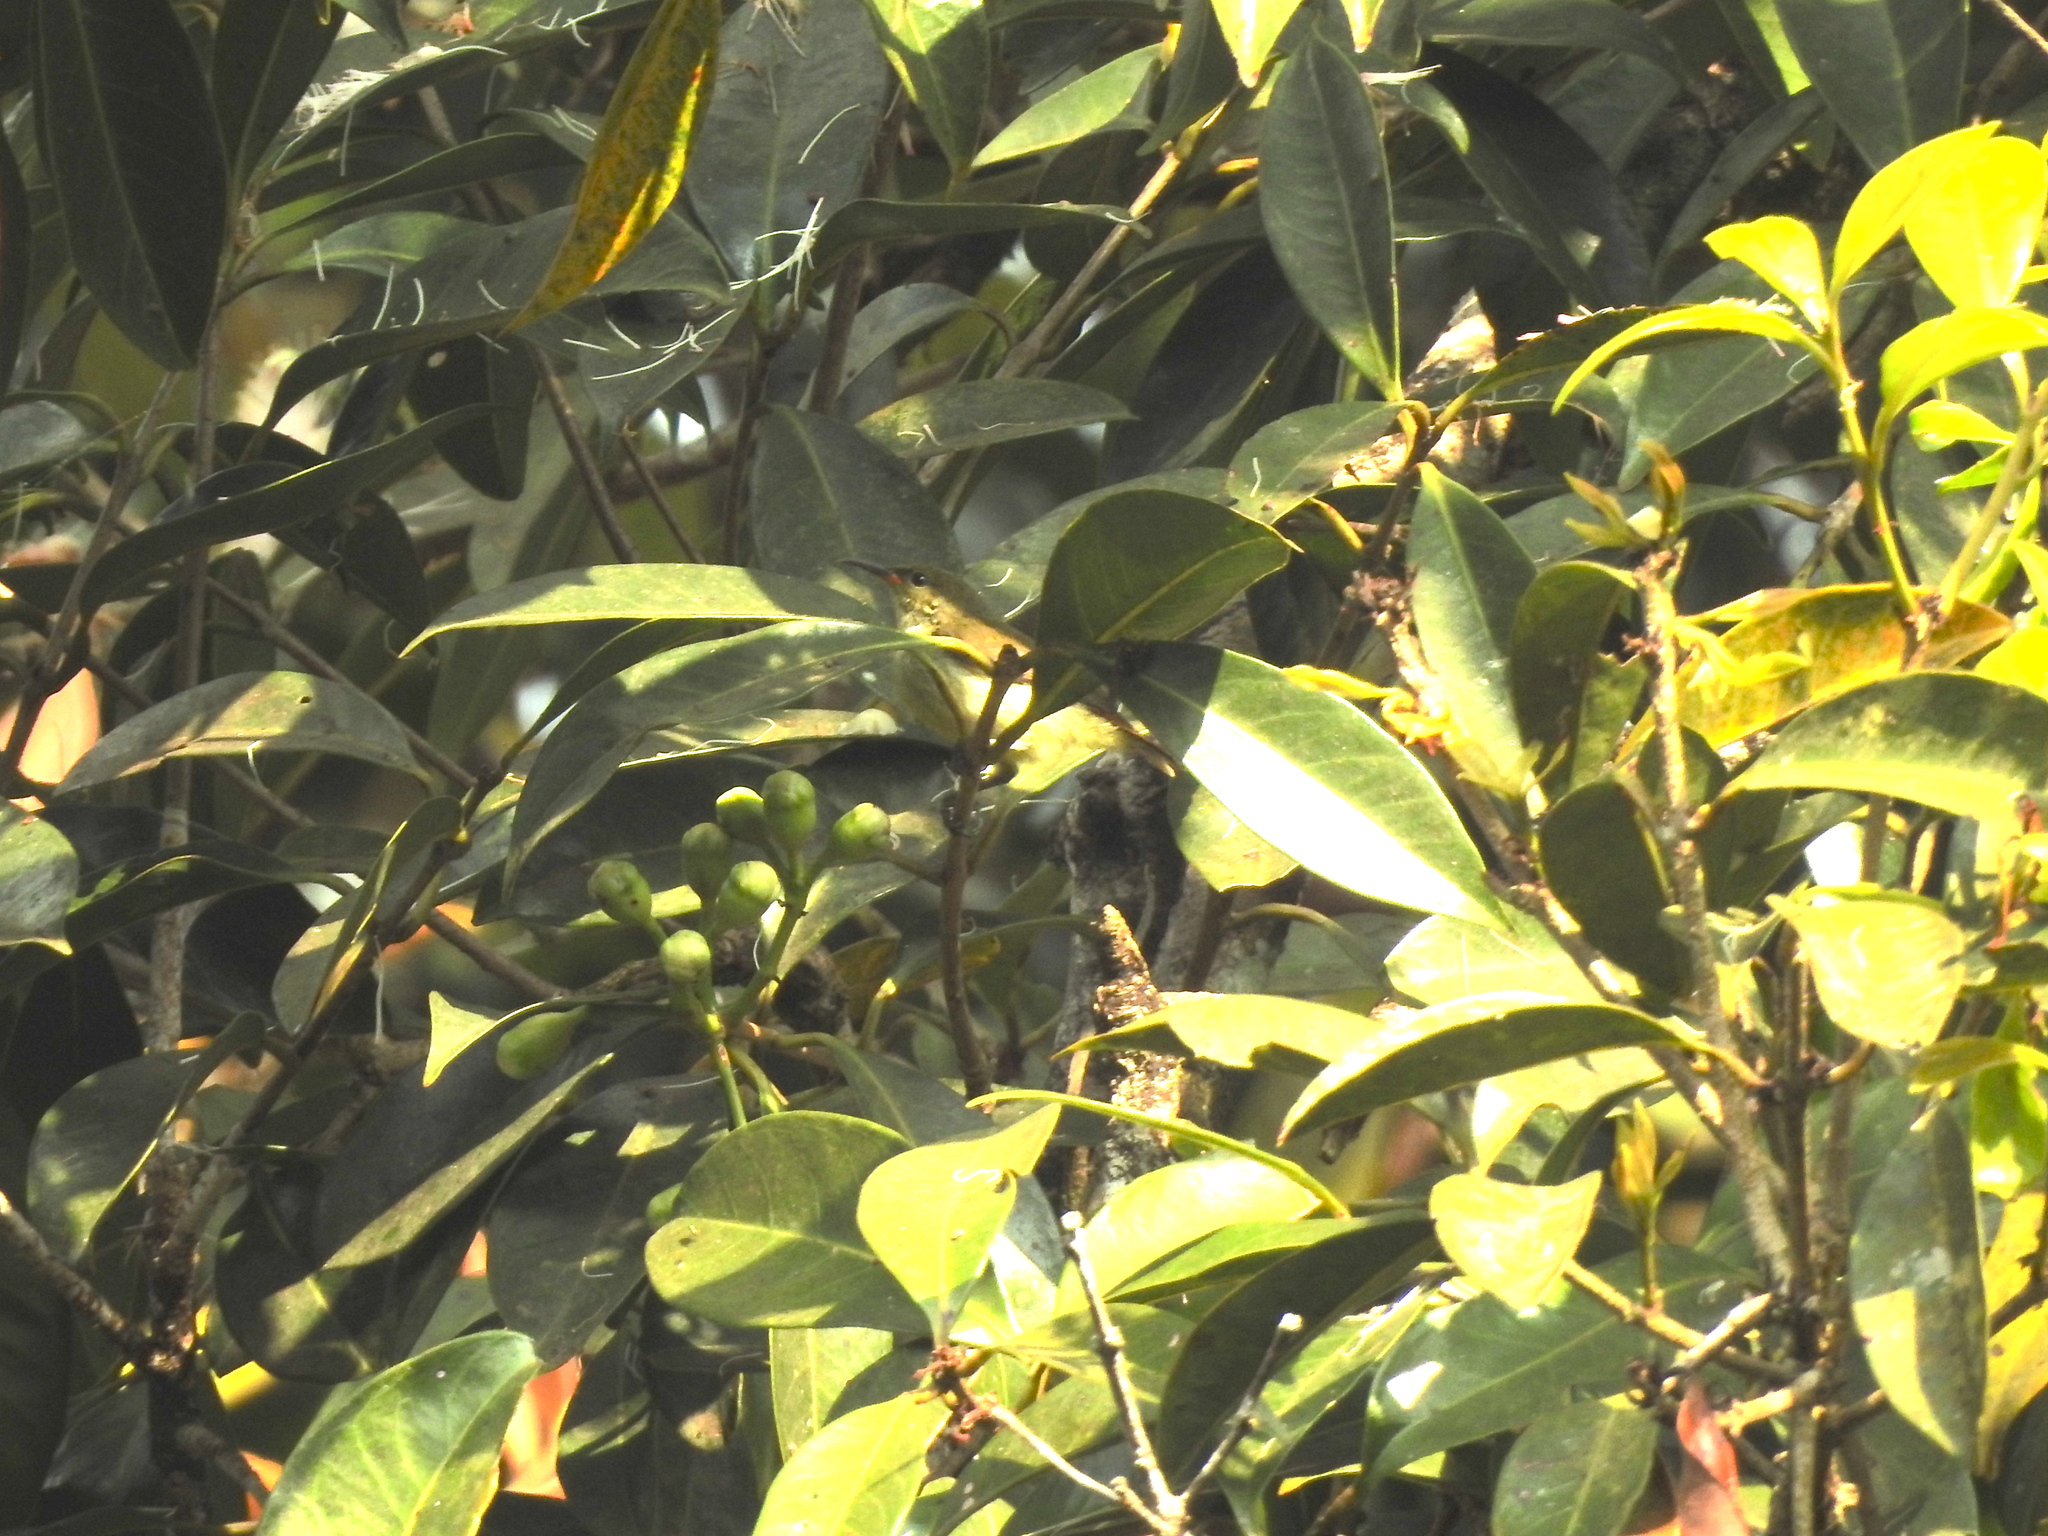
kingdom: Animalia
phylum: Chordata
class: Aves
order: Passeriformes
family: Nectariniidae
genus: Leptocoma
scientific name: Leptocoma minima
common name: Crimson-backed sunbird
